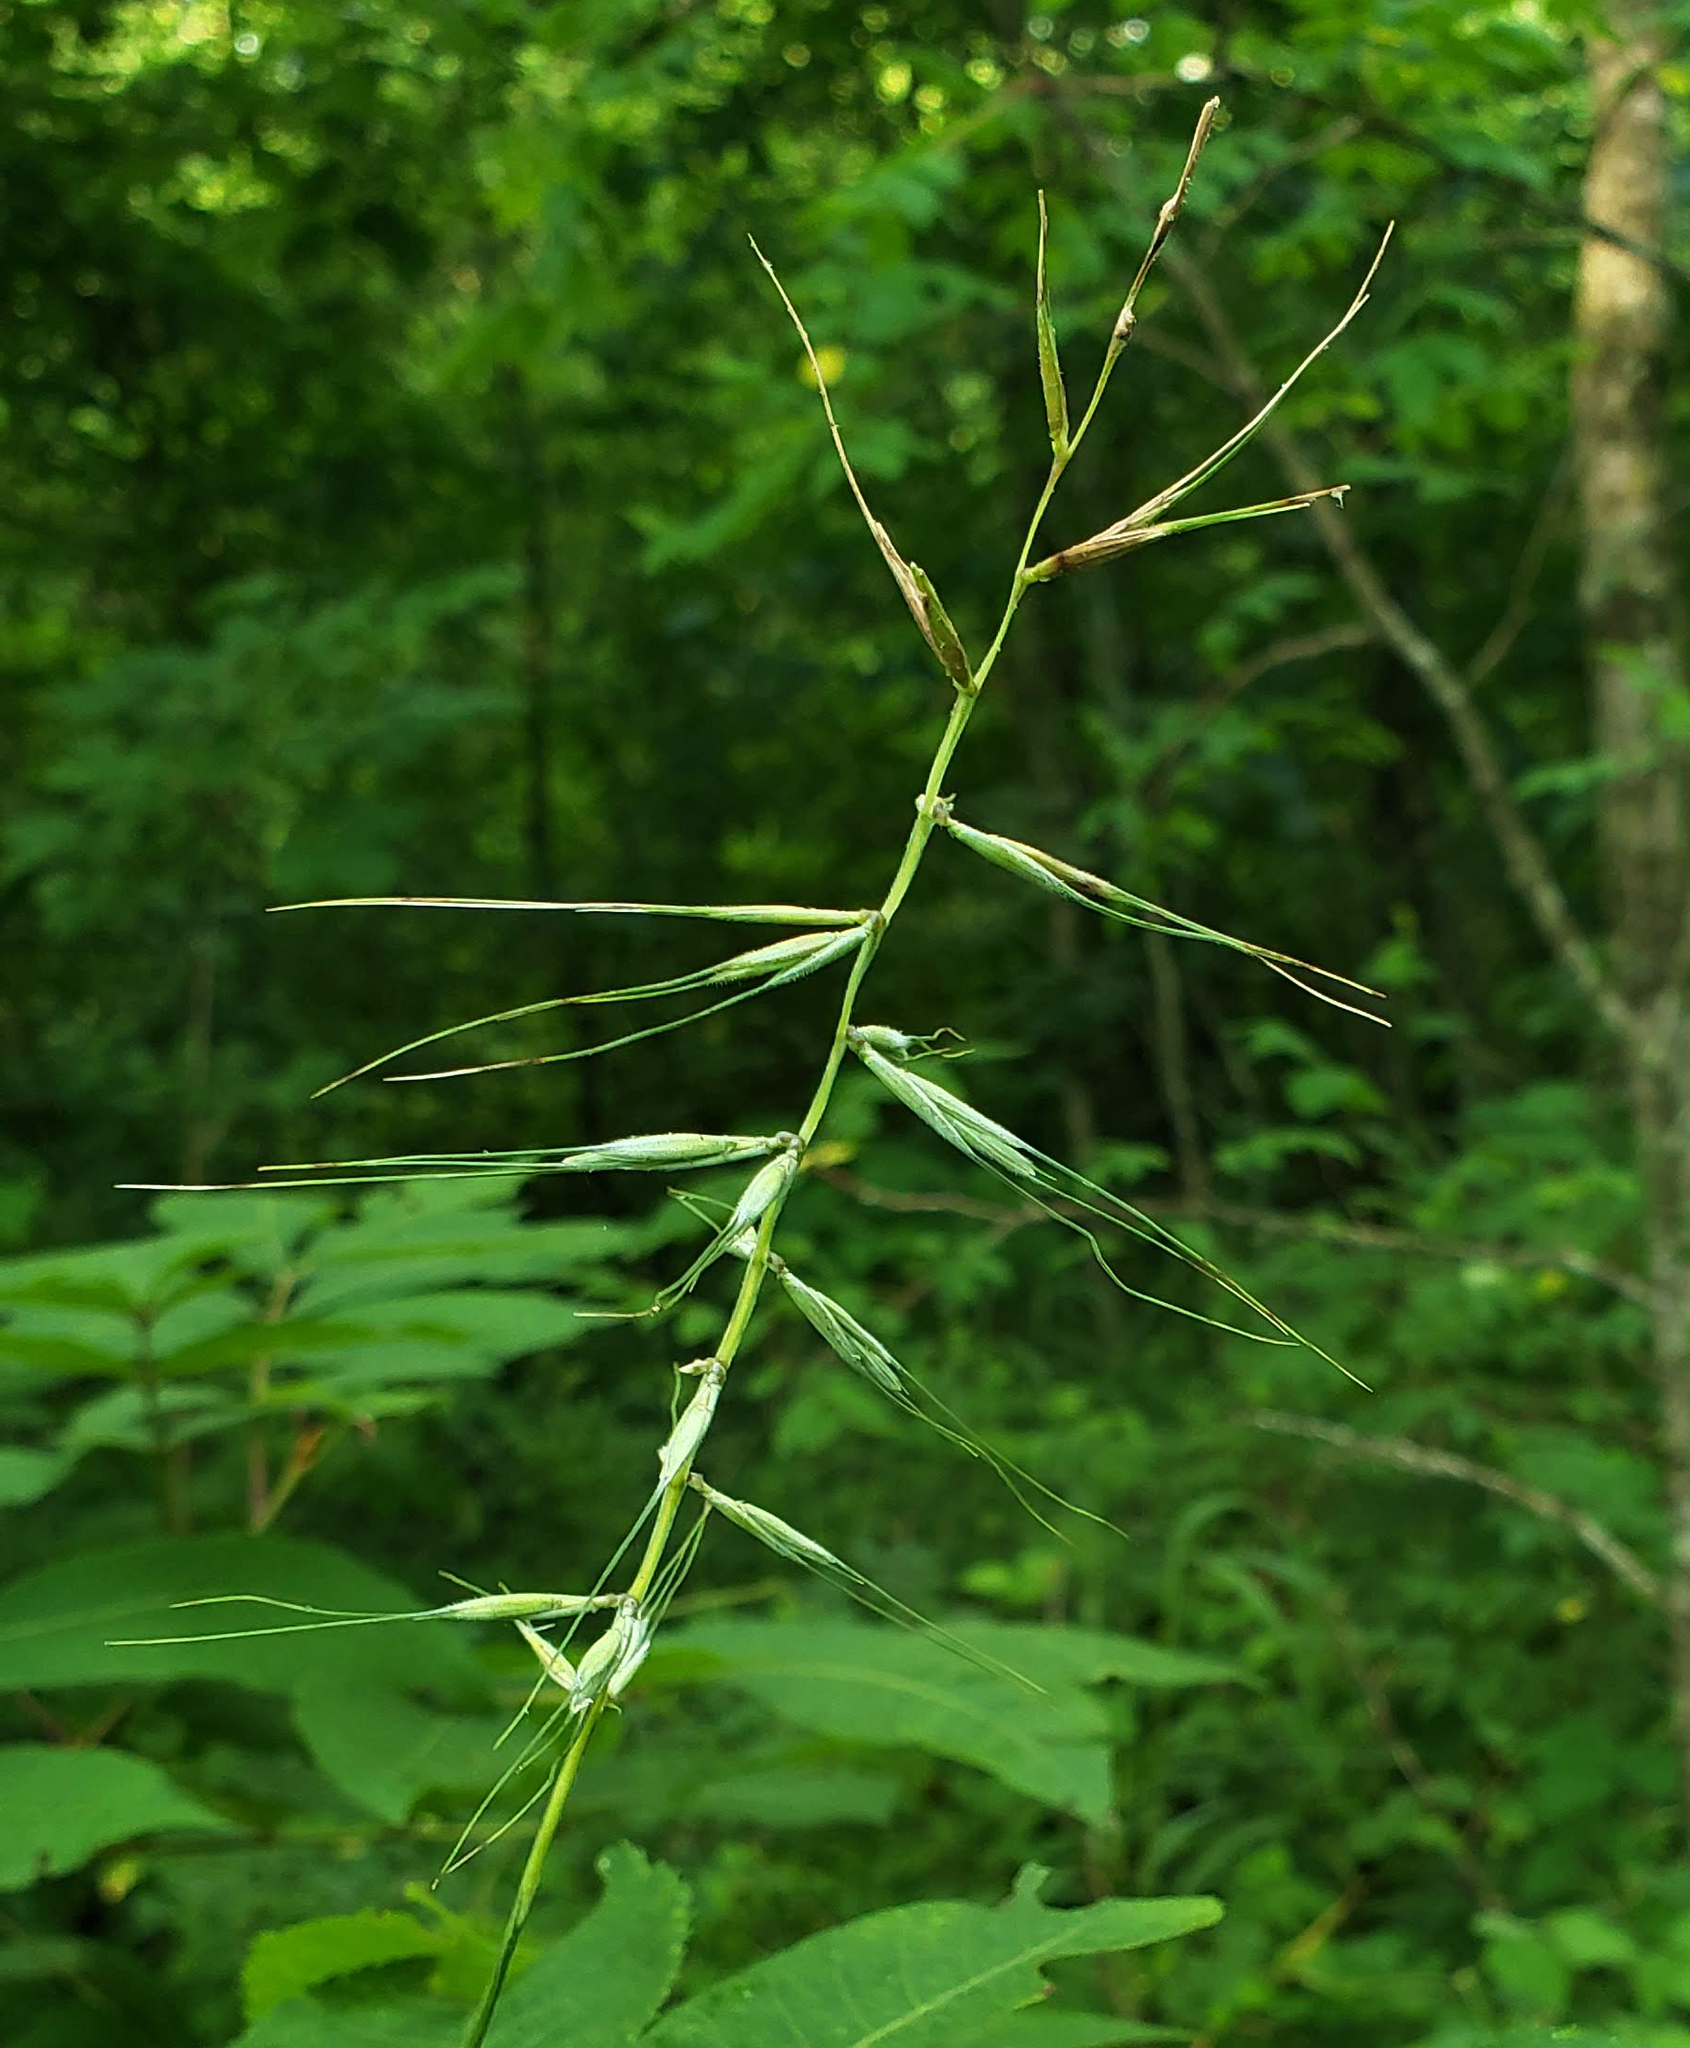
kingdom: Plantae
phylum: Tracheophyta
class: Liliopsida
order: Poales
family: Poaceae
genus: Elymus
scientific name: Elymus hystrix
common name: Bottlebrush grass
